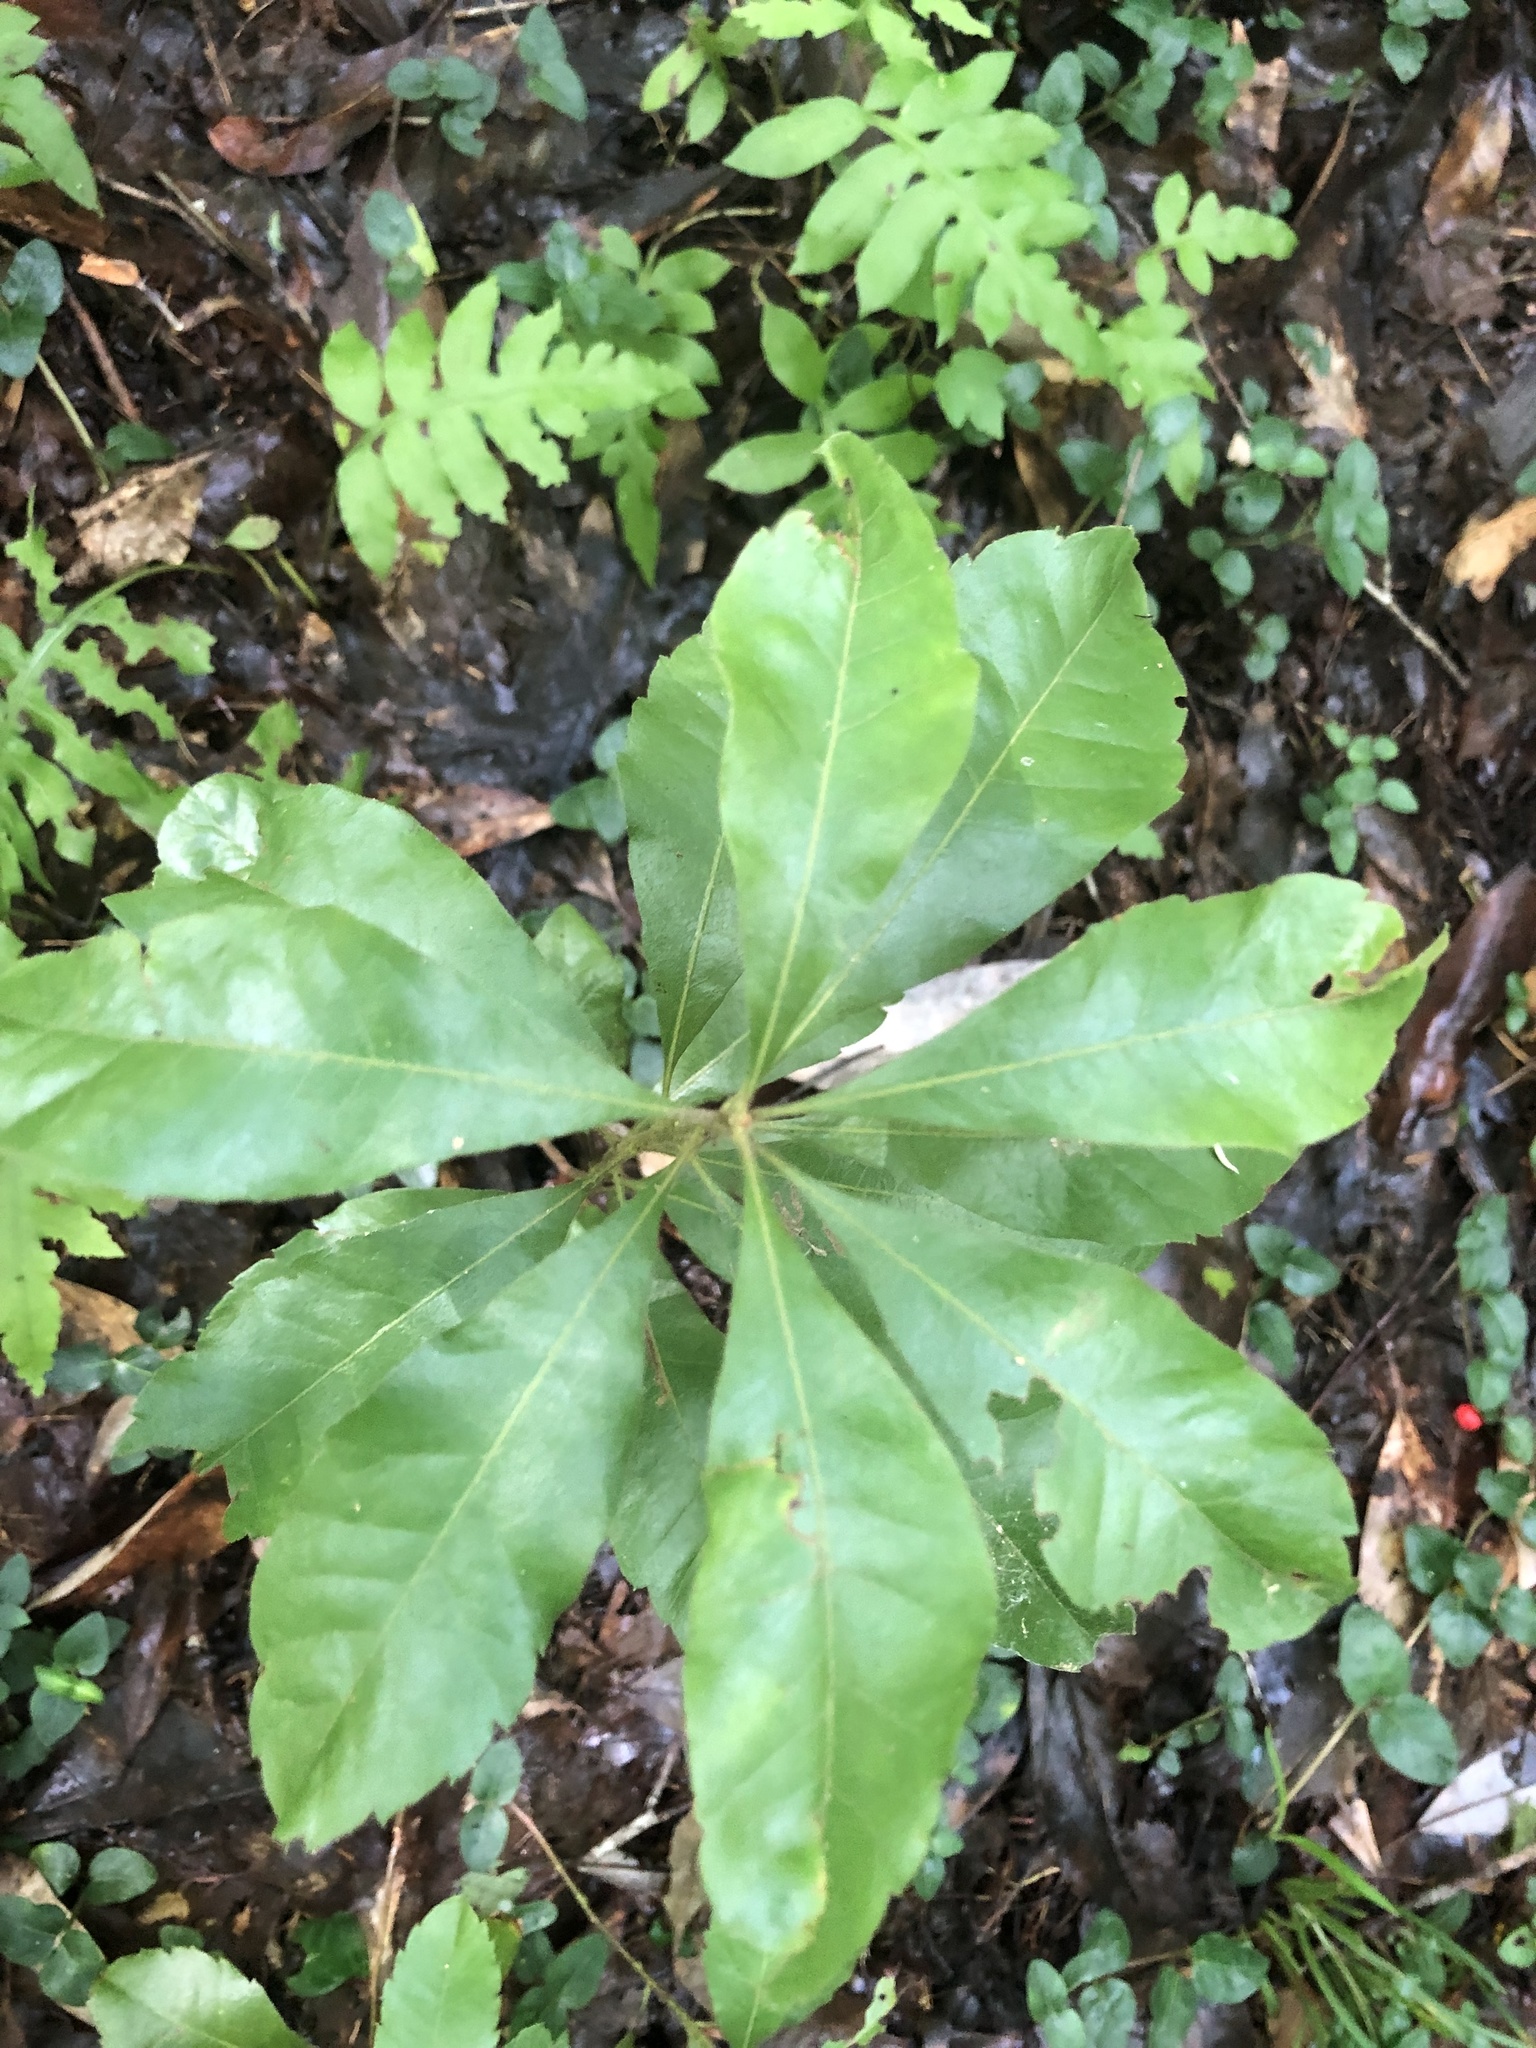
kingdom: Plantae
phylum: Tracheophyta
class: Magnoliopsida
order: Fagales
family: Myricaceae
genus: Morella
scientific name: Morella caroliniensis
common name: Evergreen bayberry
